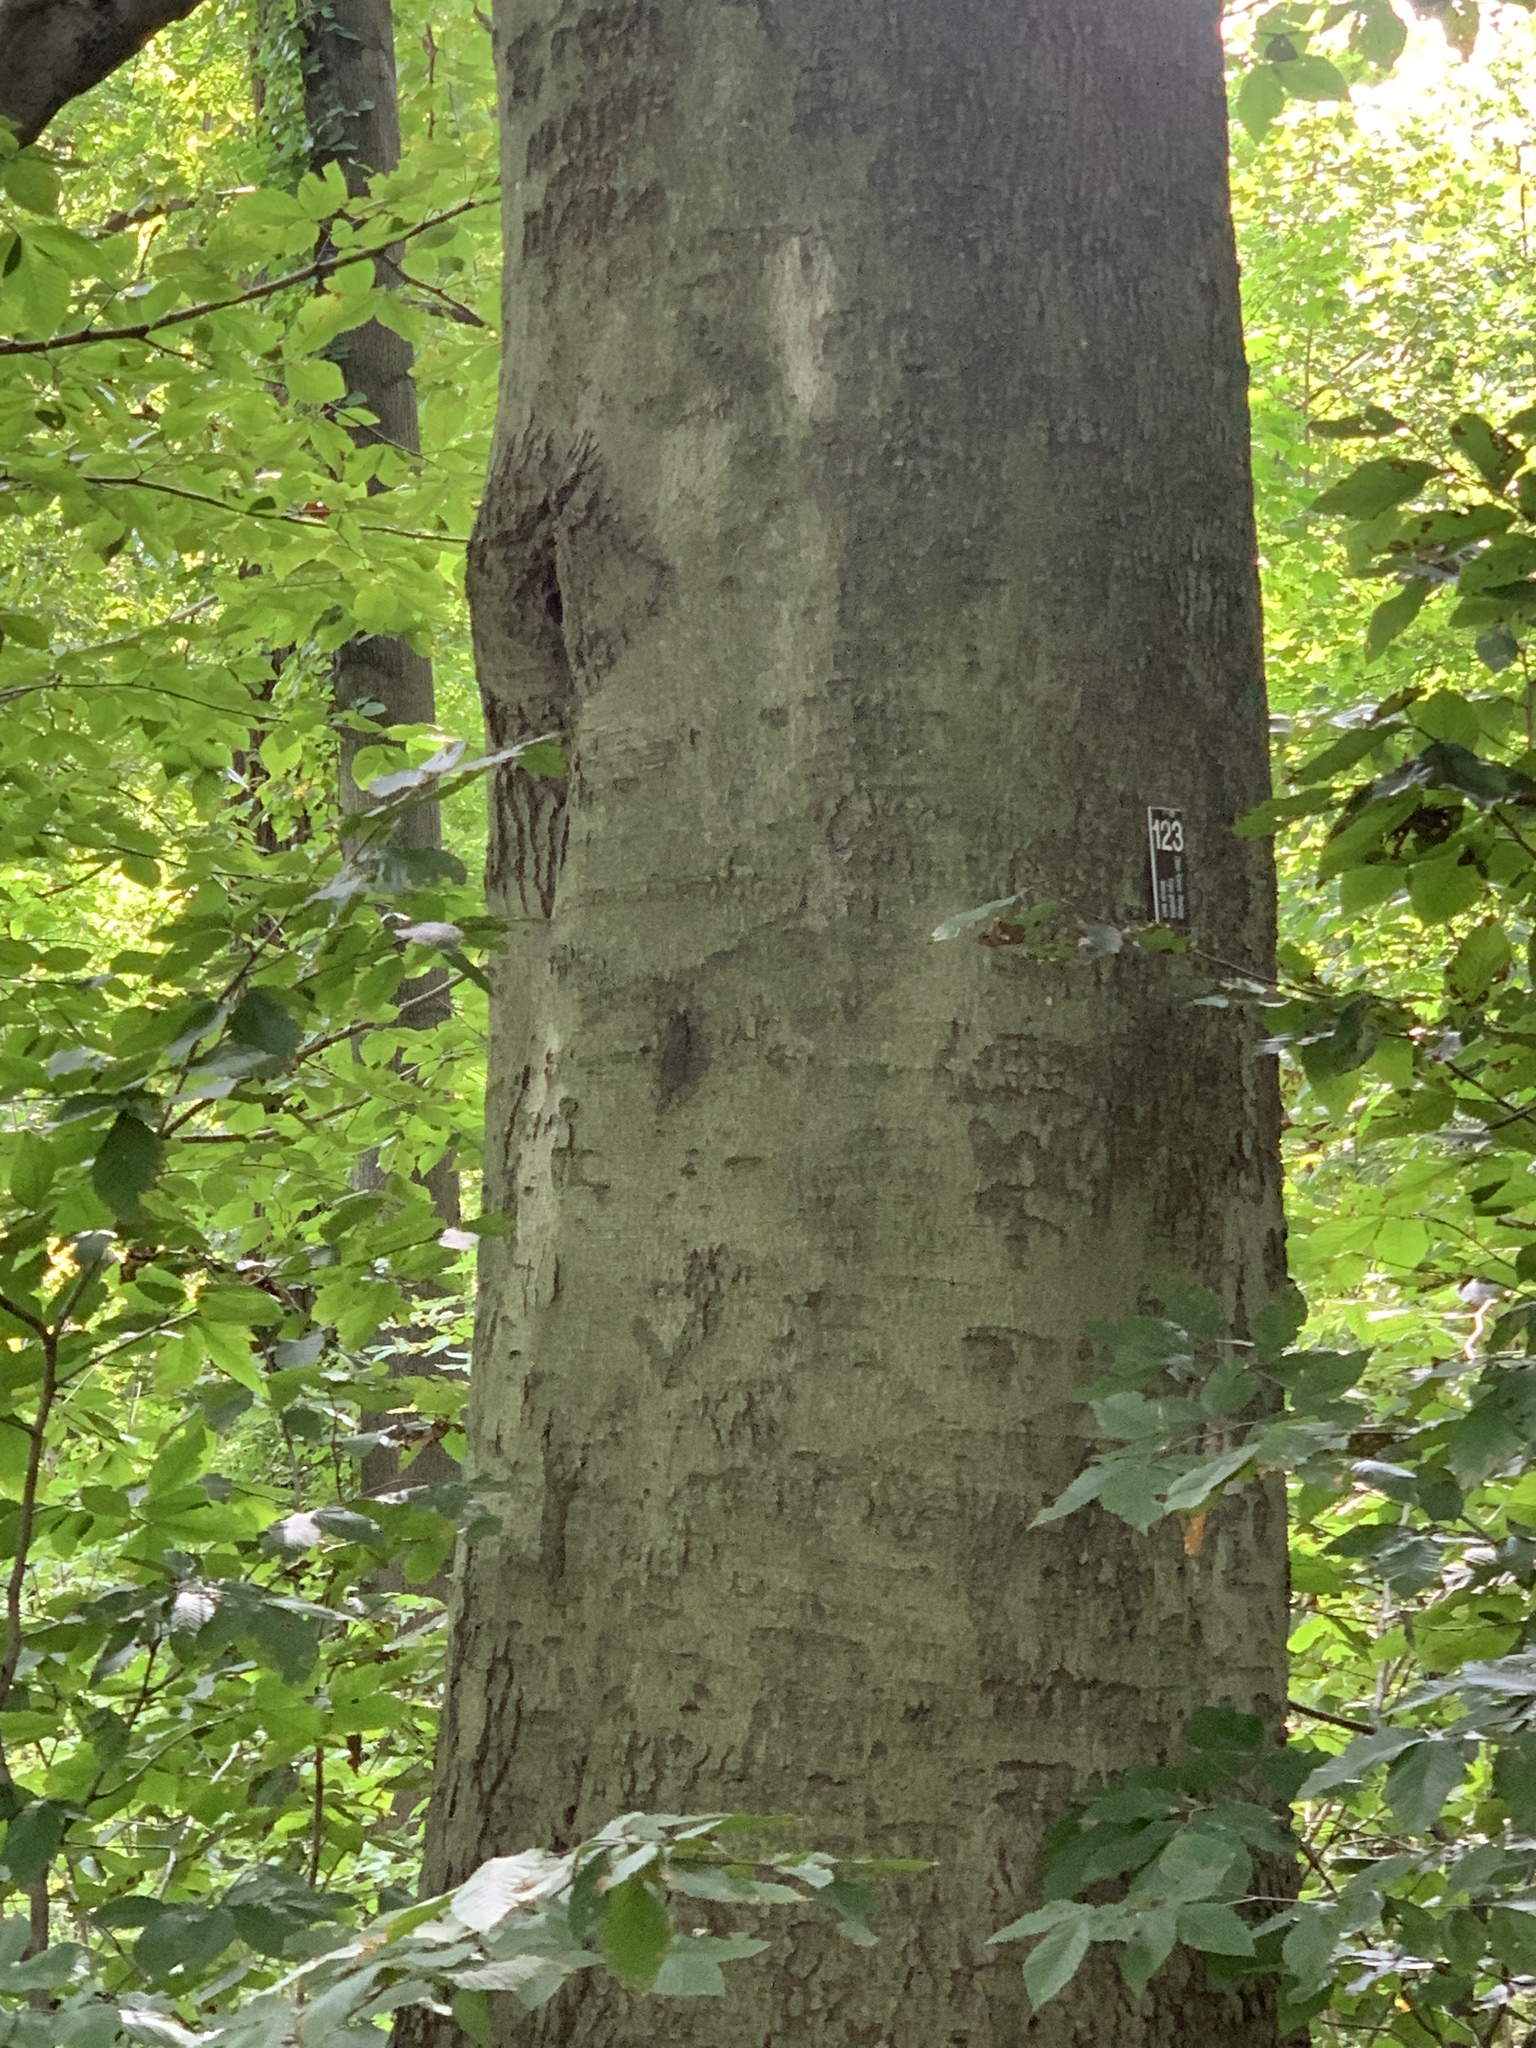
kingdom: Plantae
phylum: Tracheophyta
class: Magnoliopsida
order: Fagales
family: Fagaceae
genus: Fagus
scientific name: Fagus grandifolia
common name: American beech
